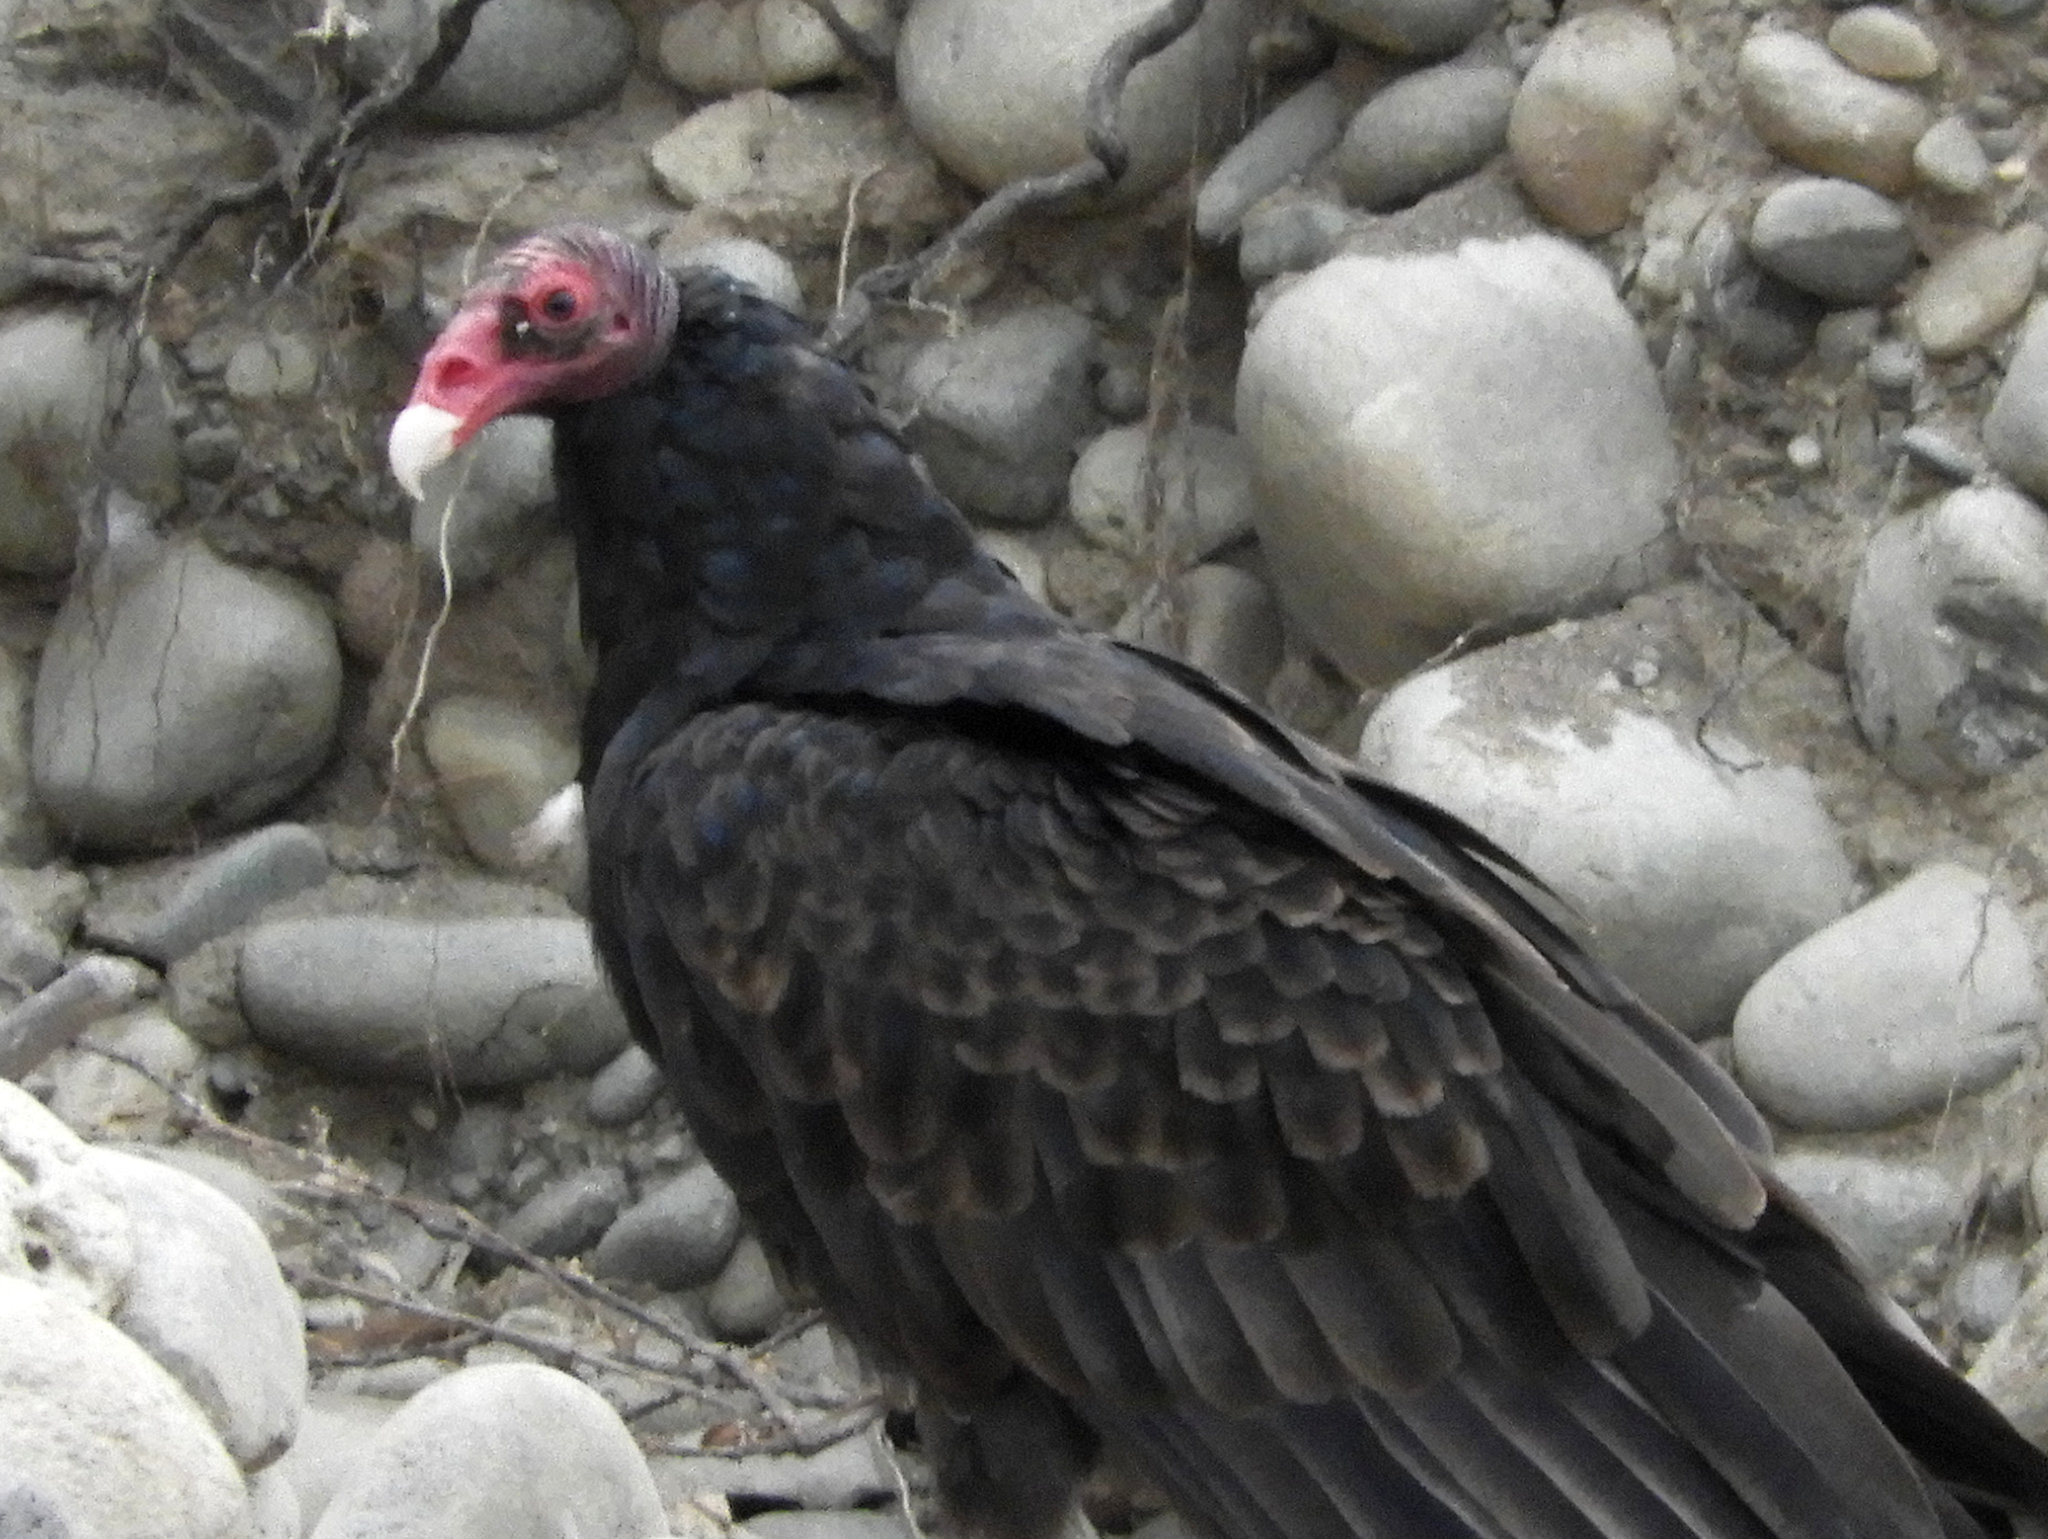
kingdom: Animalia
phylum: Chordata
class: Aves
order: Accipitriformes
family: Cathartidae
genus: Cathartes
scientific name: Cathartes aura
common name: Turkey vulture
